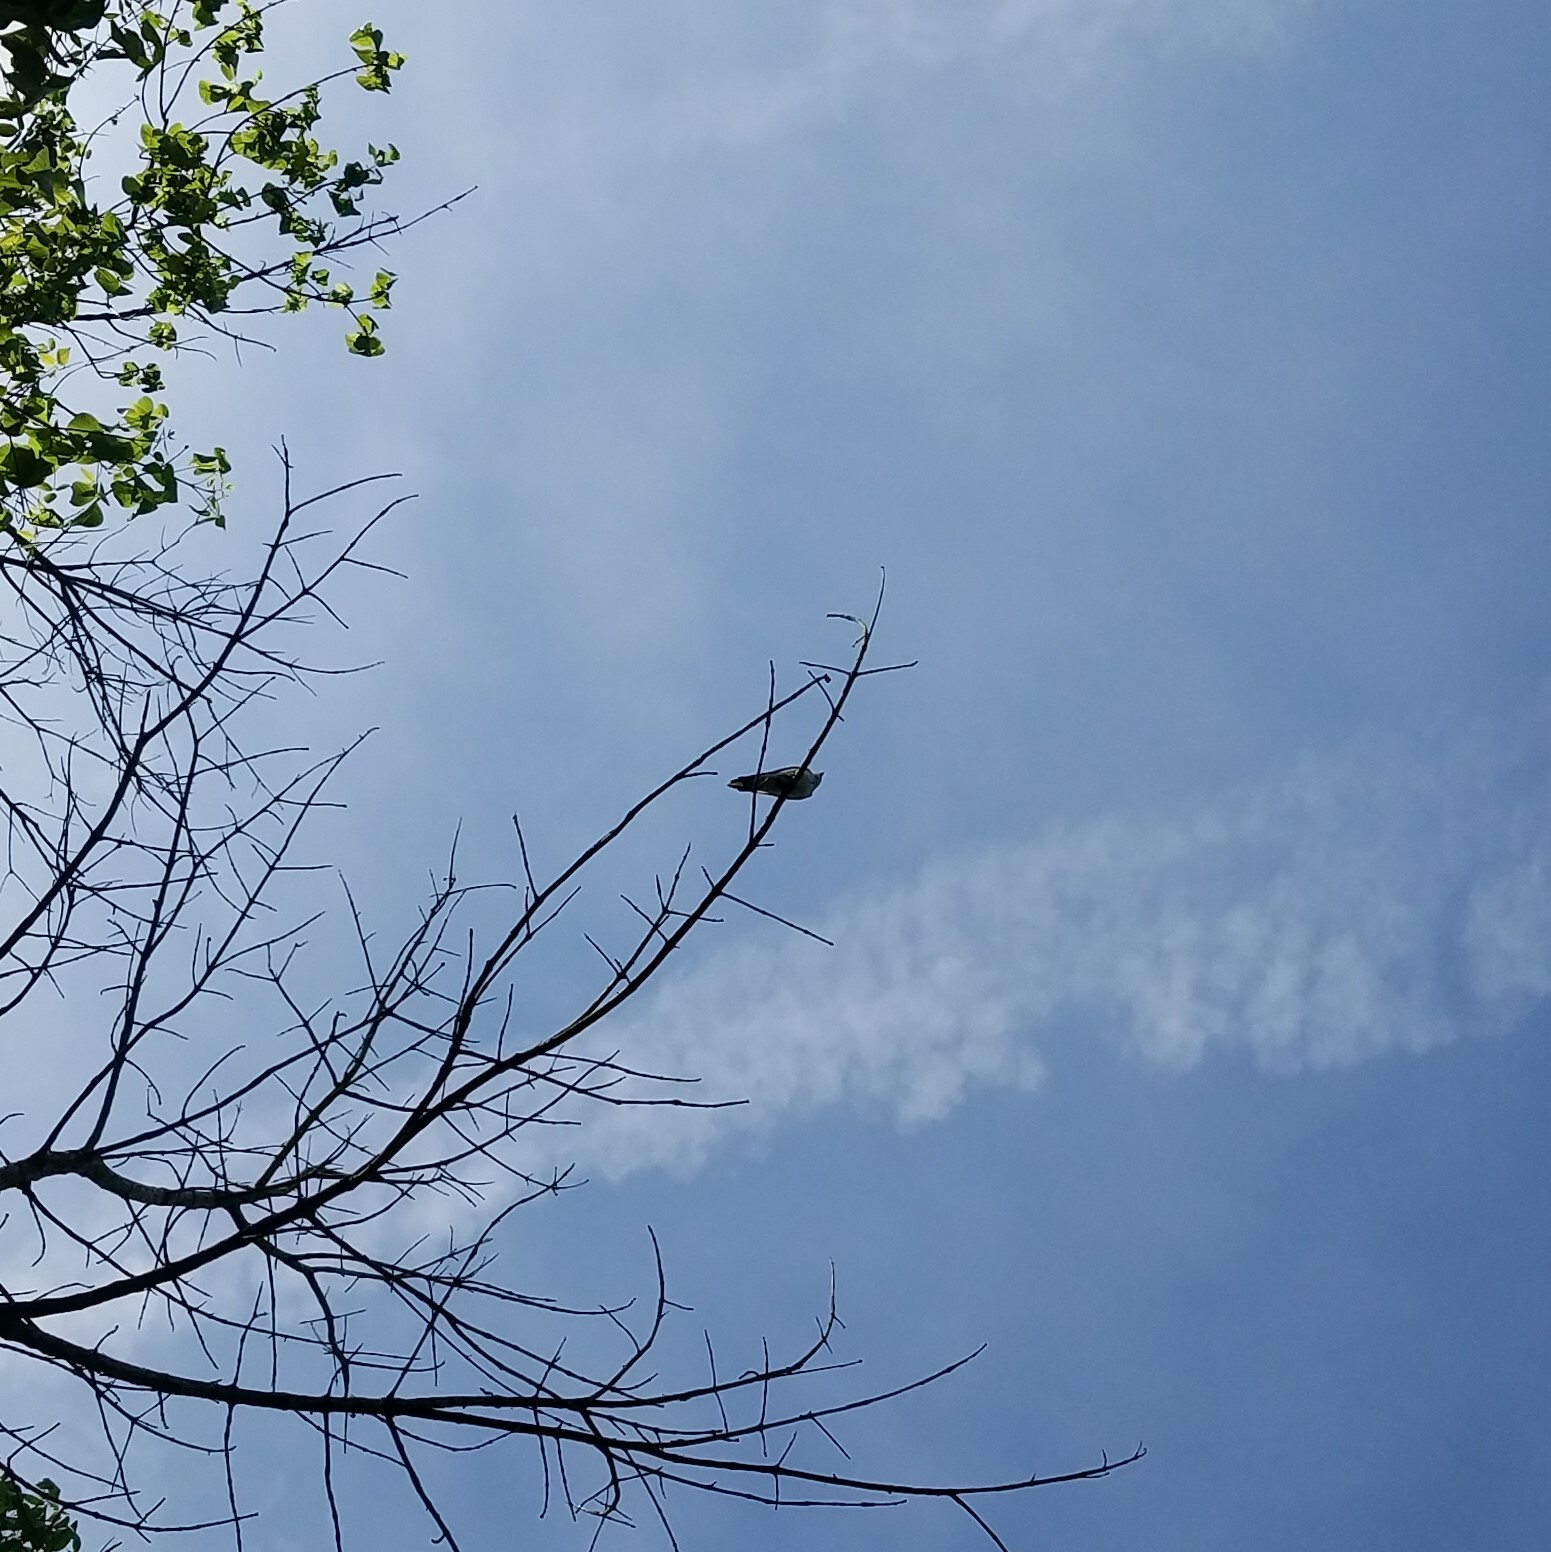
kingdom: Animalia
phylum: Chordata
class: Aves
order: Passeriformes
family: Hirundinidae
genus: Tachycineta
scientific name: Tachycineta bicolor
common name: Tree swallow
